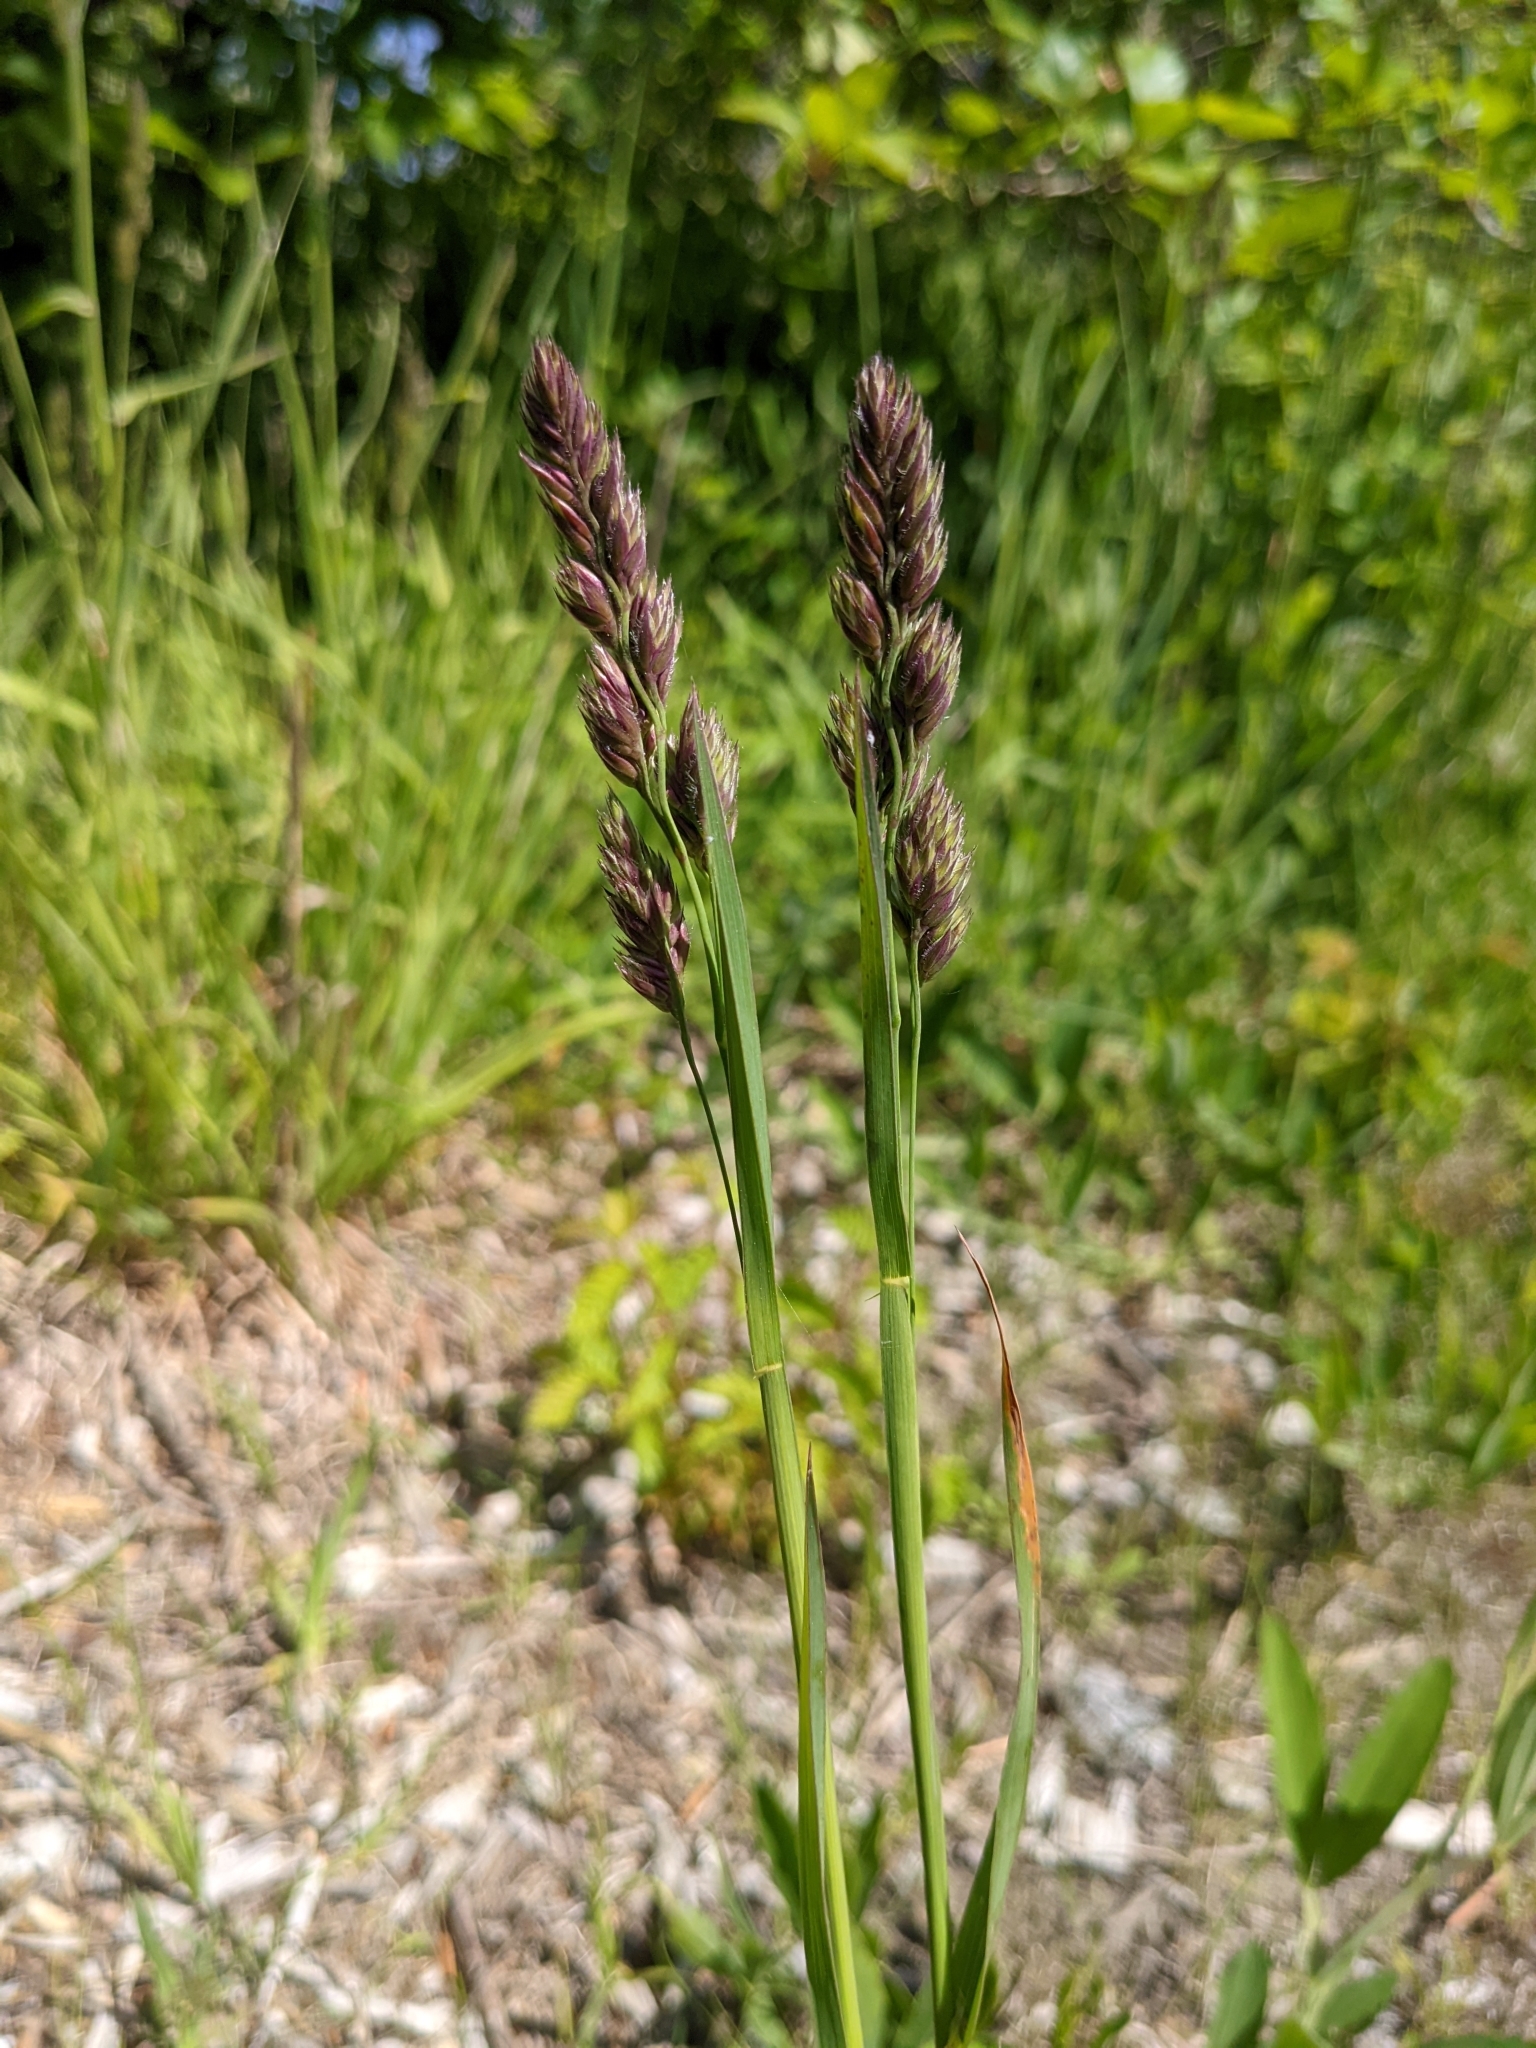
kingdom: Plantae
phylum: Tracheophyta
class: Liliopsida
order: Poales
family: Poaceae
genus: Dactylis
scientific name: Dactylis glomerata
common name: Orchardgrass
